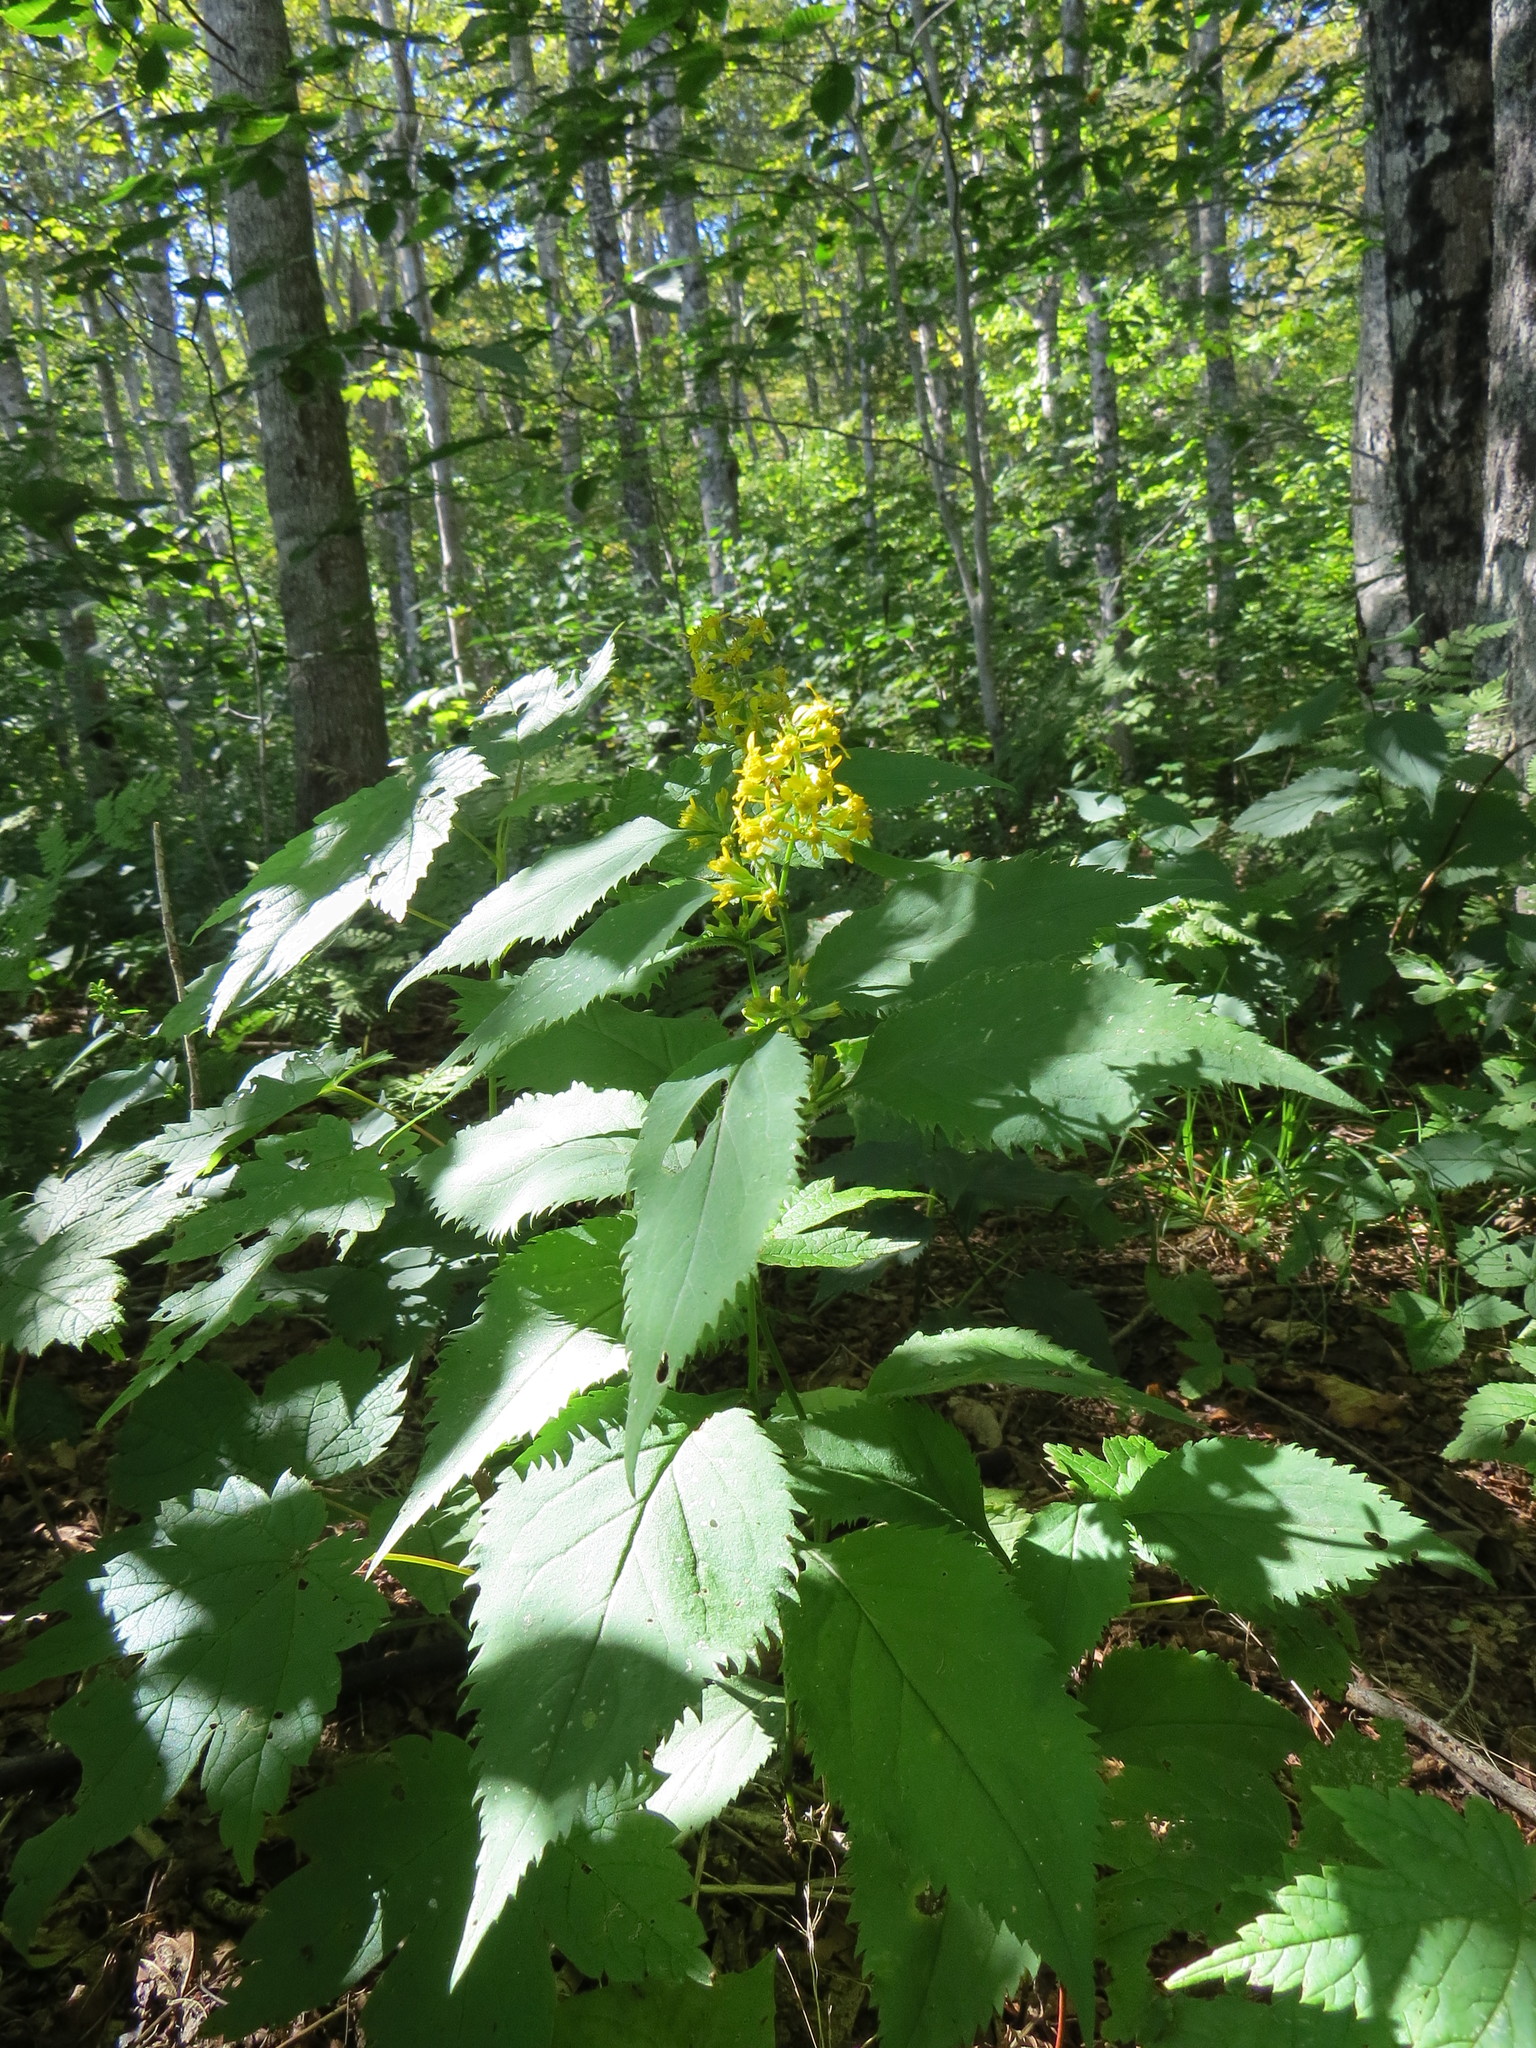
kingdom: Plantae
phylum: Tracheophyta
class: Magnoliopsida
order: Asterales
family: Asteraceae
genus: Solidago
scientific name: Solidago flexicaulis
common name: Zig-zag goldenrod
